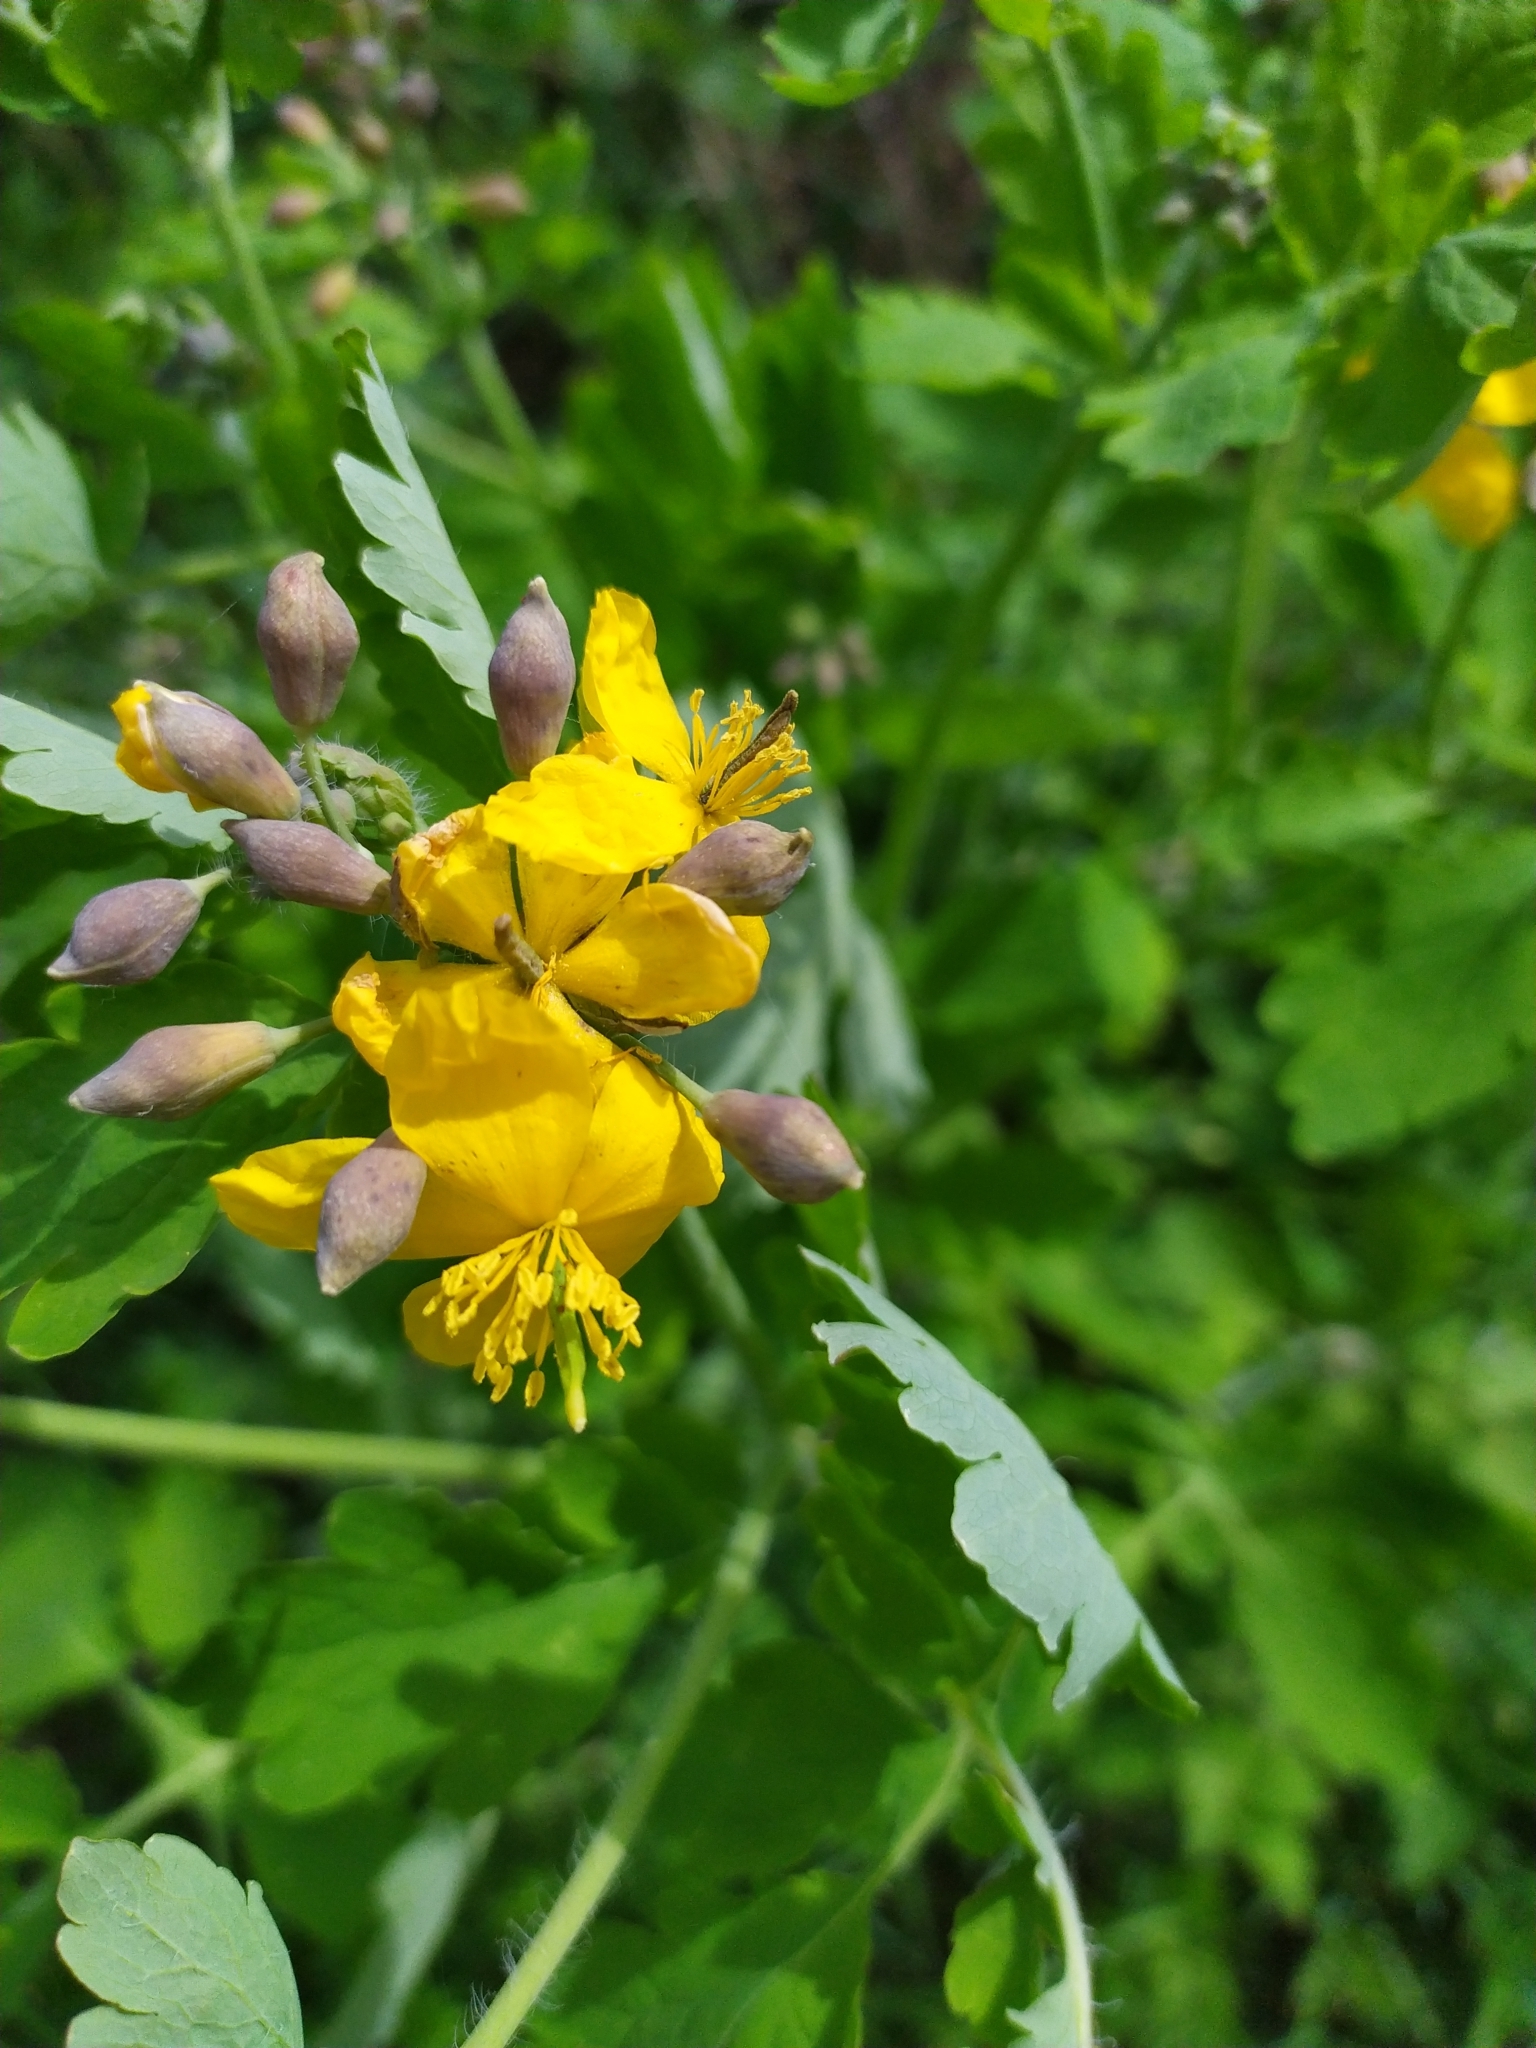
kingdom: Plantae
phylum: Tracheophyta
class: Magnoliopsida
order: Ranunculales
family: Papaveraceae
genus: Chelidonium
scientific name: Chelidonium majus
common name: Greater celandine
